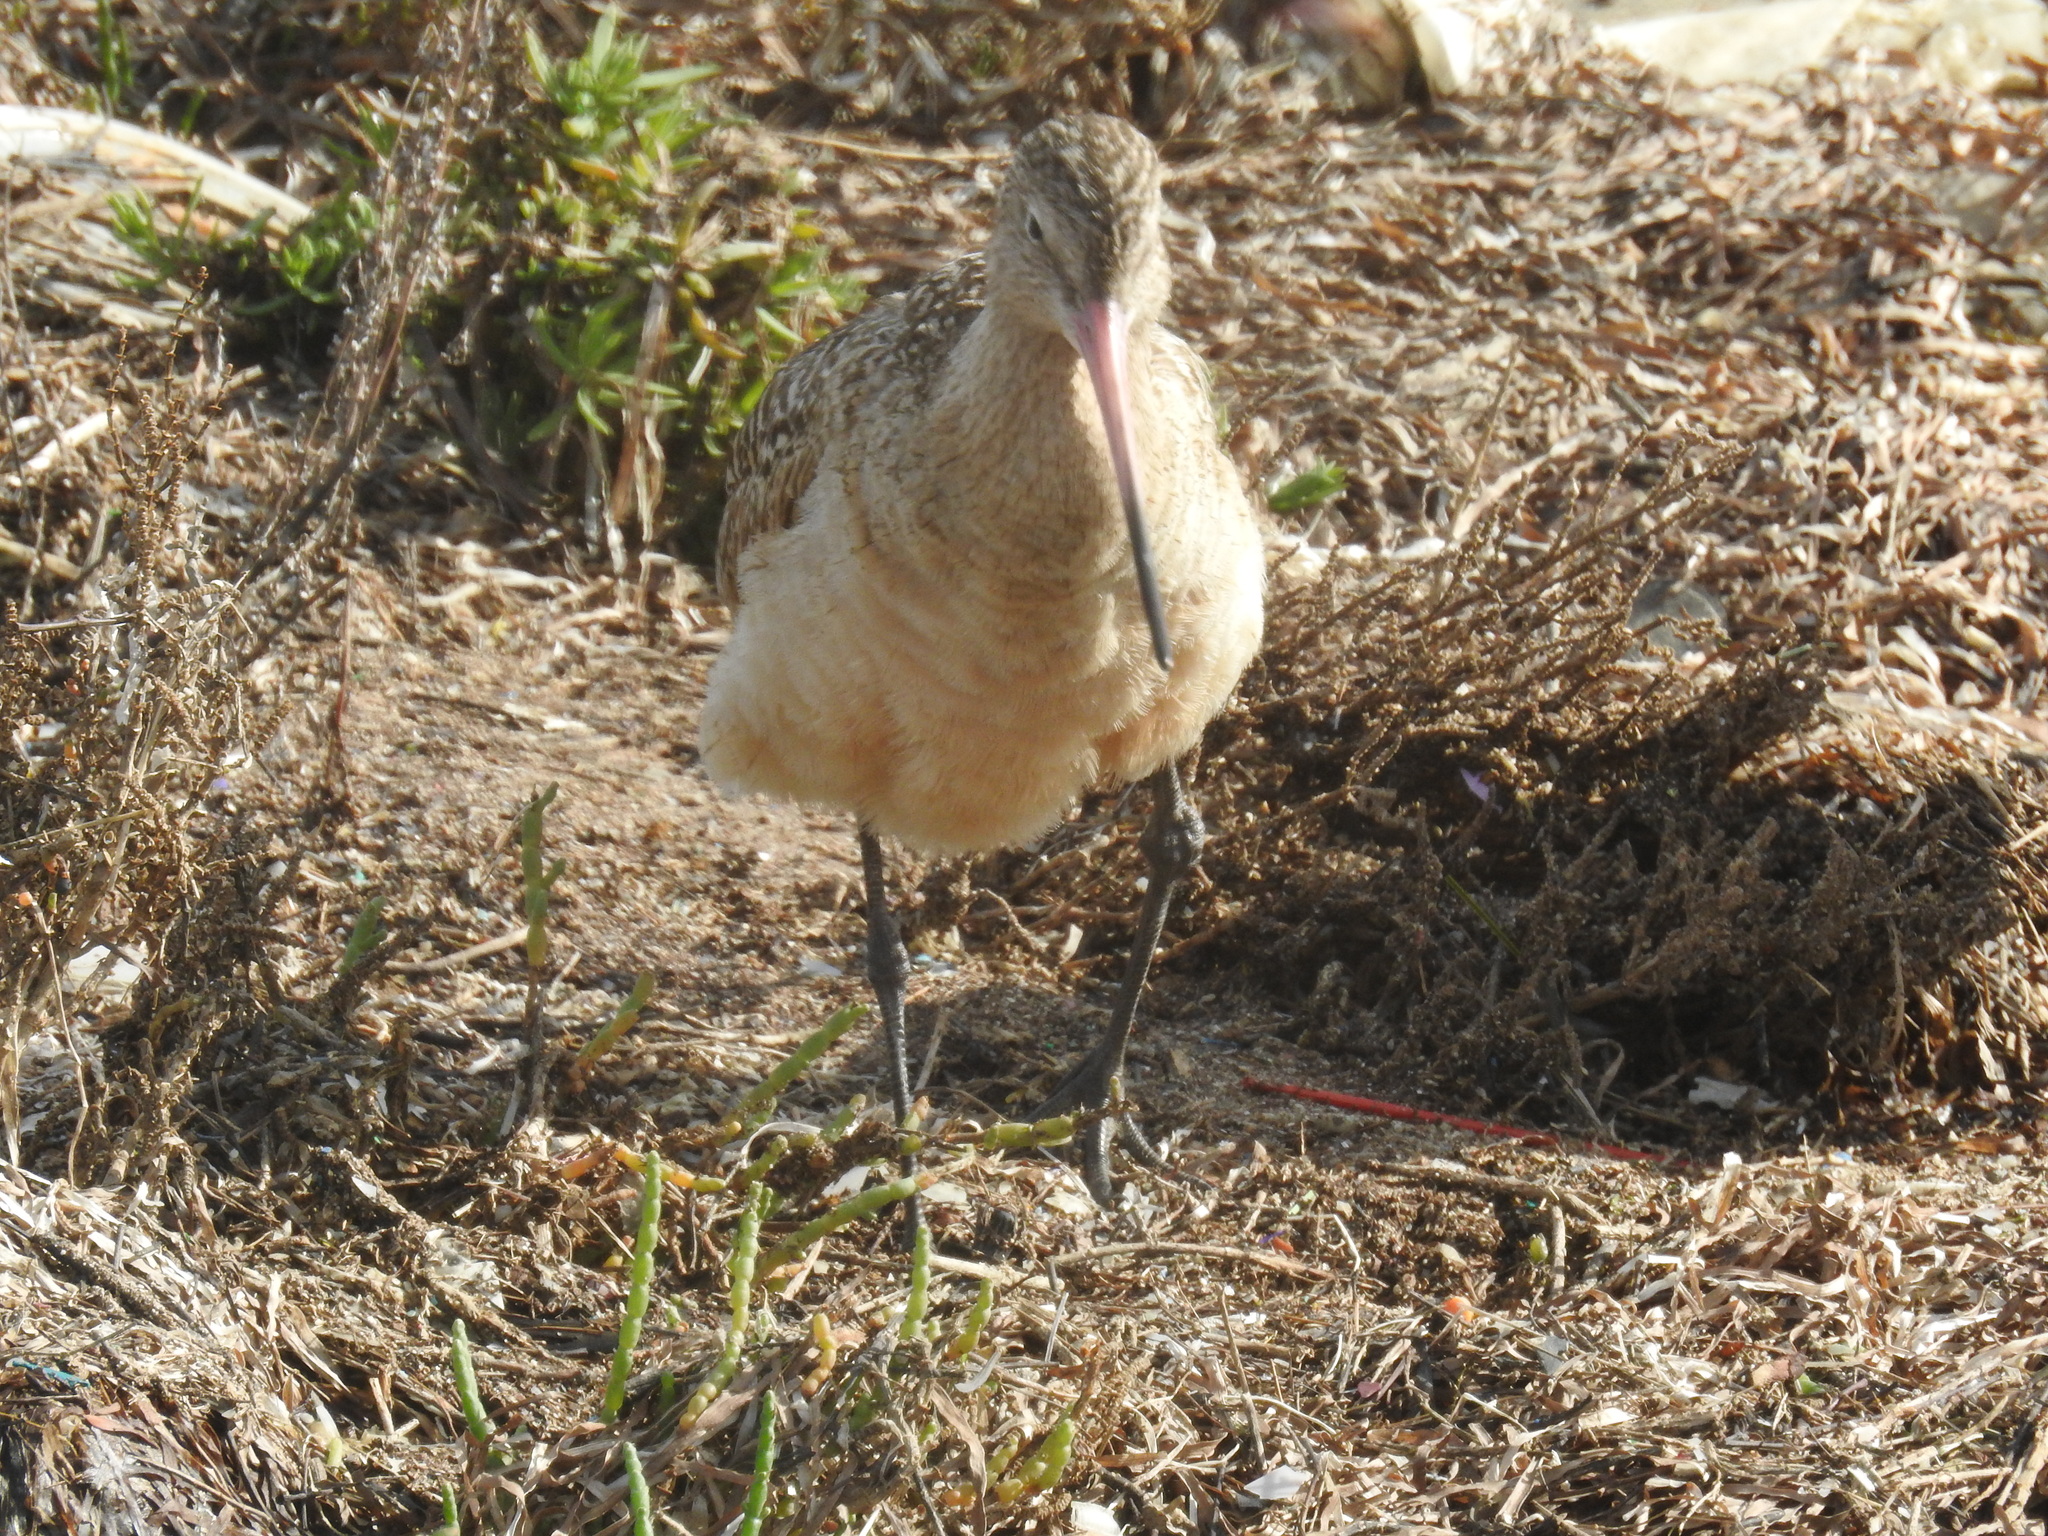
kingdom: Animalia
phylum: Chordata
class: Aves
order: Charadriiformes
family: Scolopacidae
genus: Limosa
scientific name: Limosa fedoa
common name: Marbled godwit
